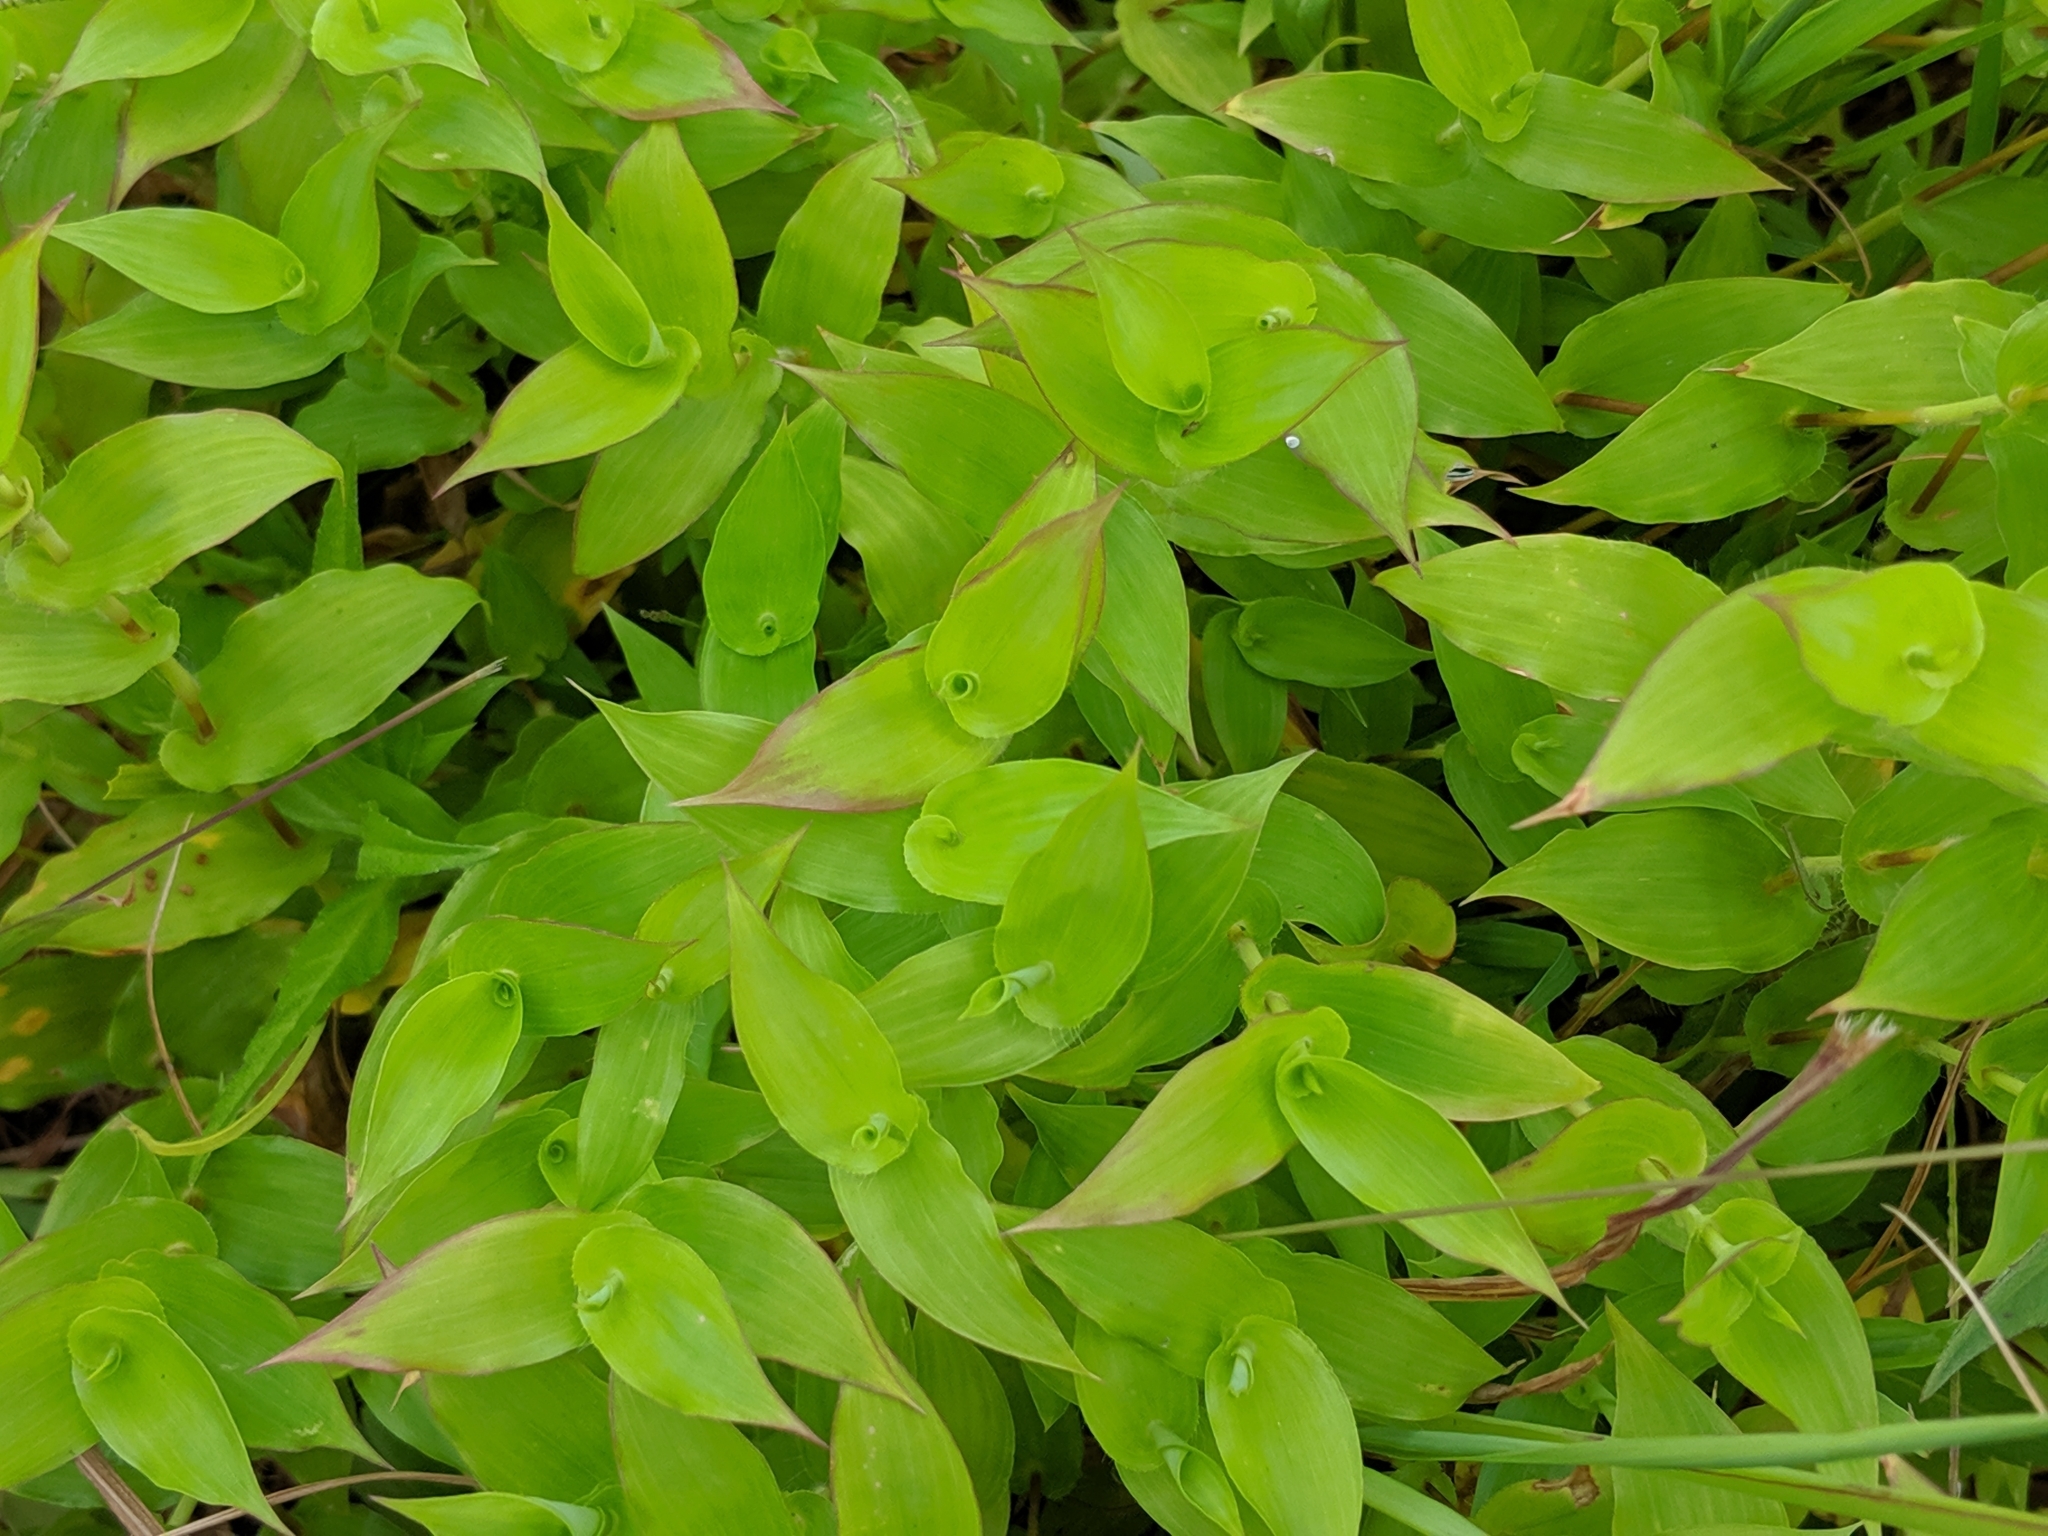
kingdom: Plantae
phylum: Tracheophyta
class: Liliopsida
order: Poales
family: Poaceae
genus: Arthraxon
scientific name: Arthraxon hispidus
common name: Small carpgrass
